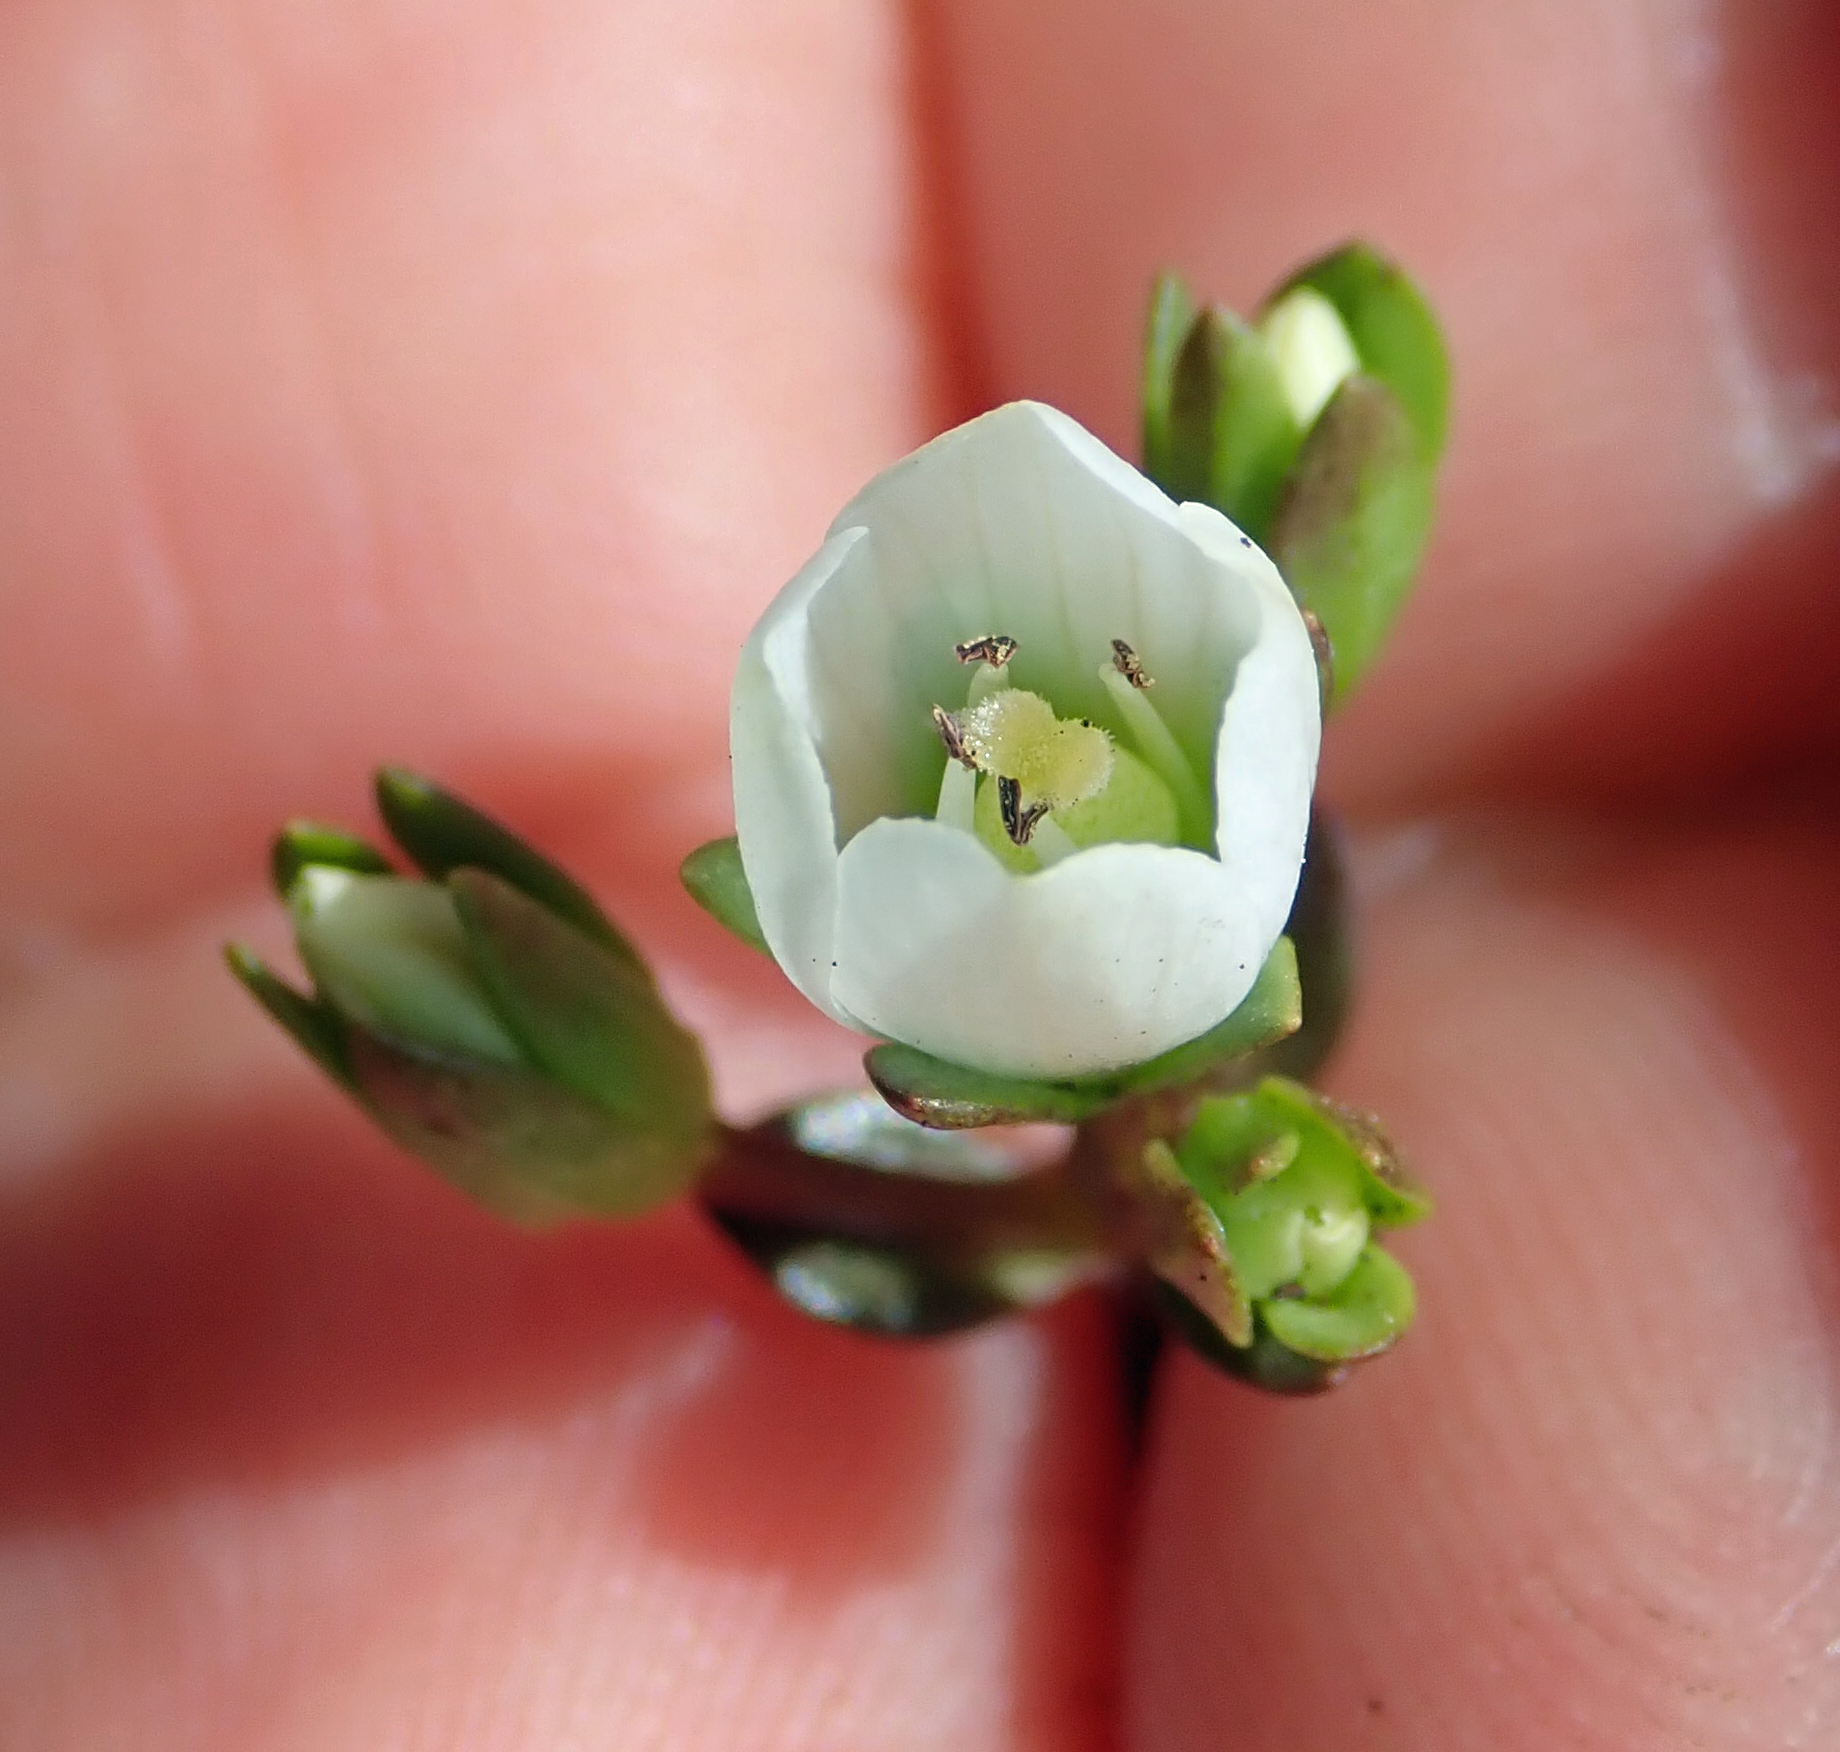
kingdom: Plantae
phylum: Tracheophyta
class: Magnoliopsida
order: Gentianales
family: Gentianaceae
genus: Gentianella
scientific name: Gentianella chathamica
